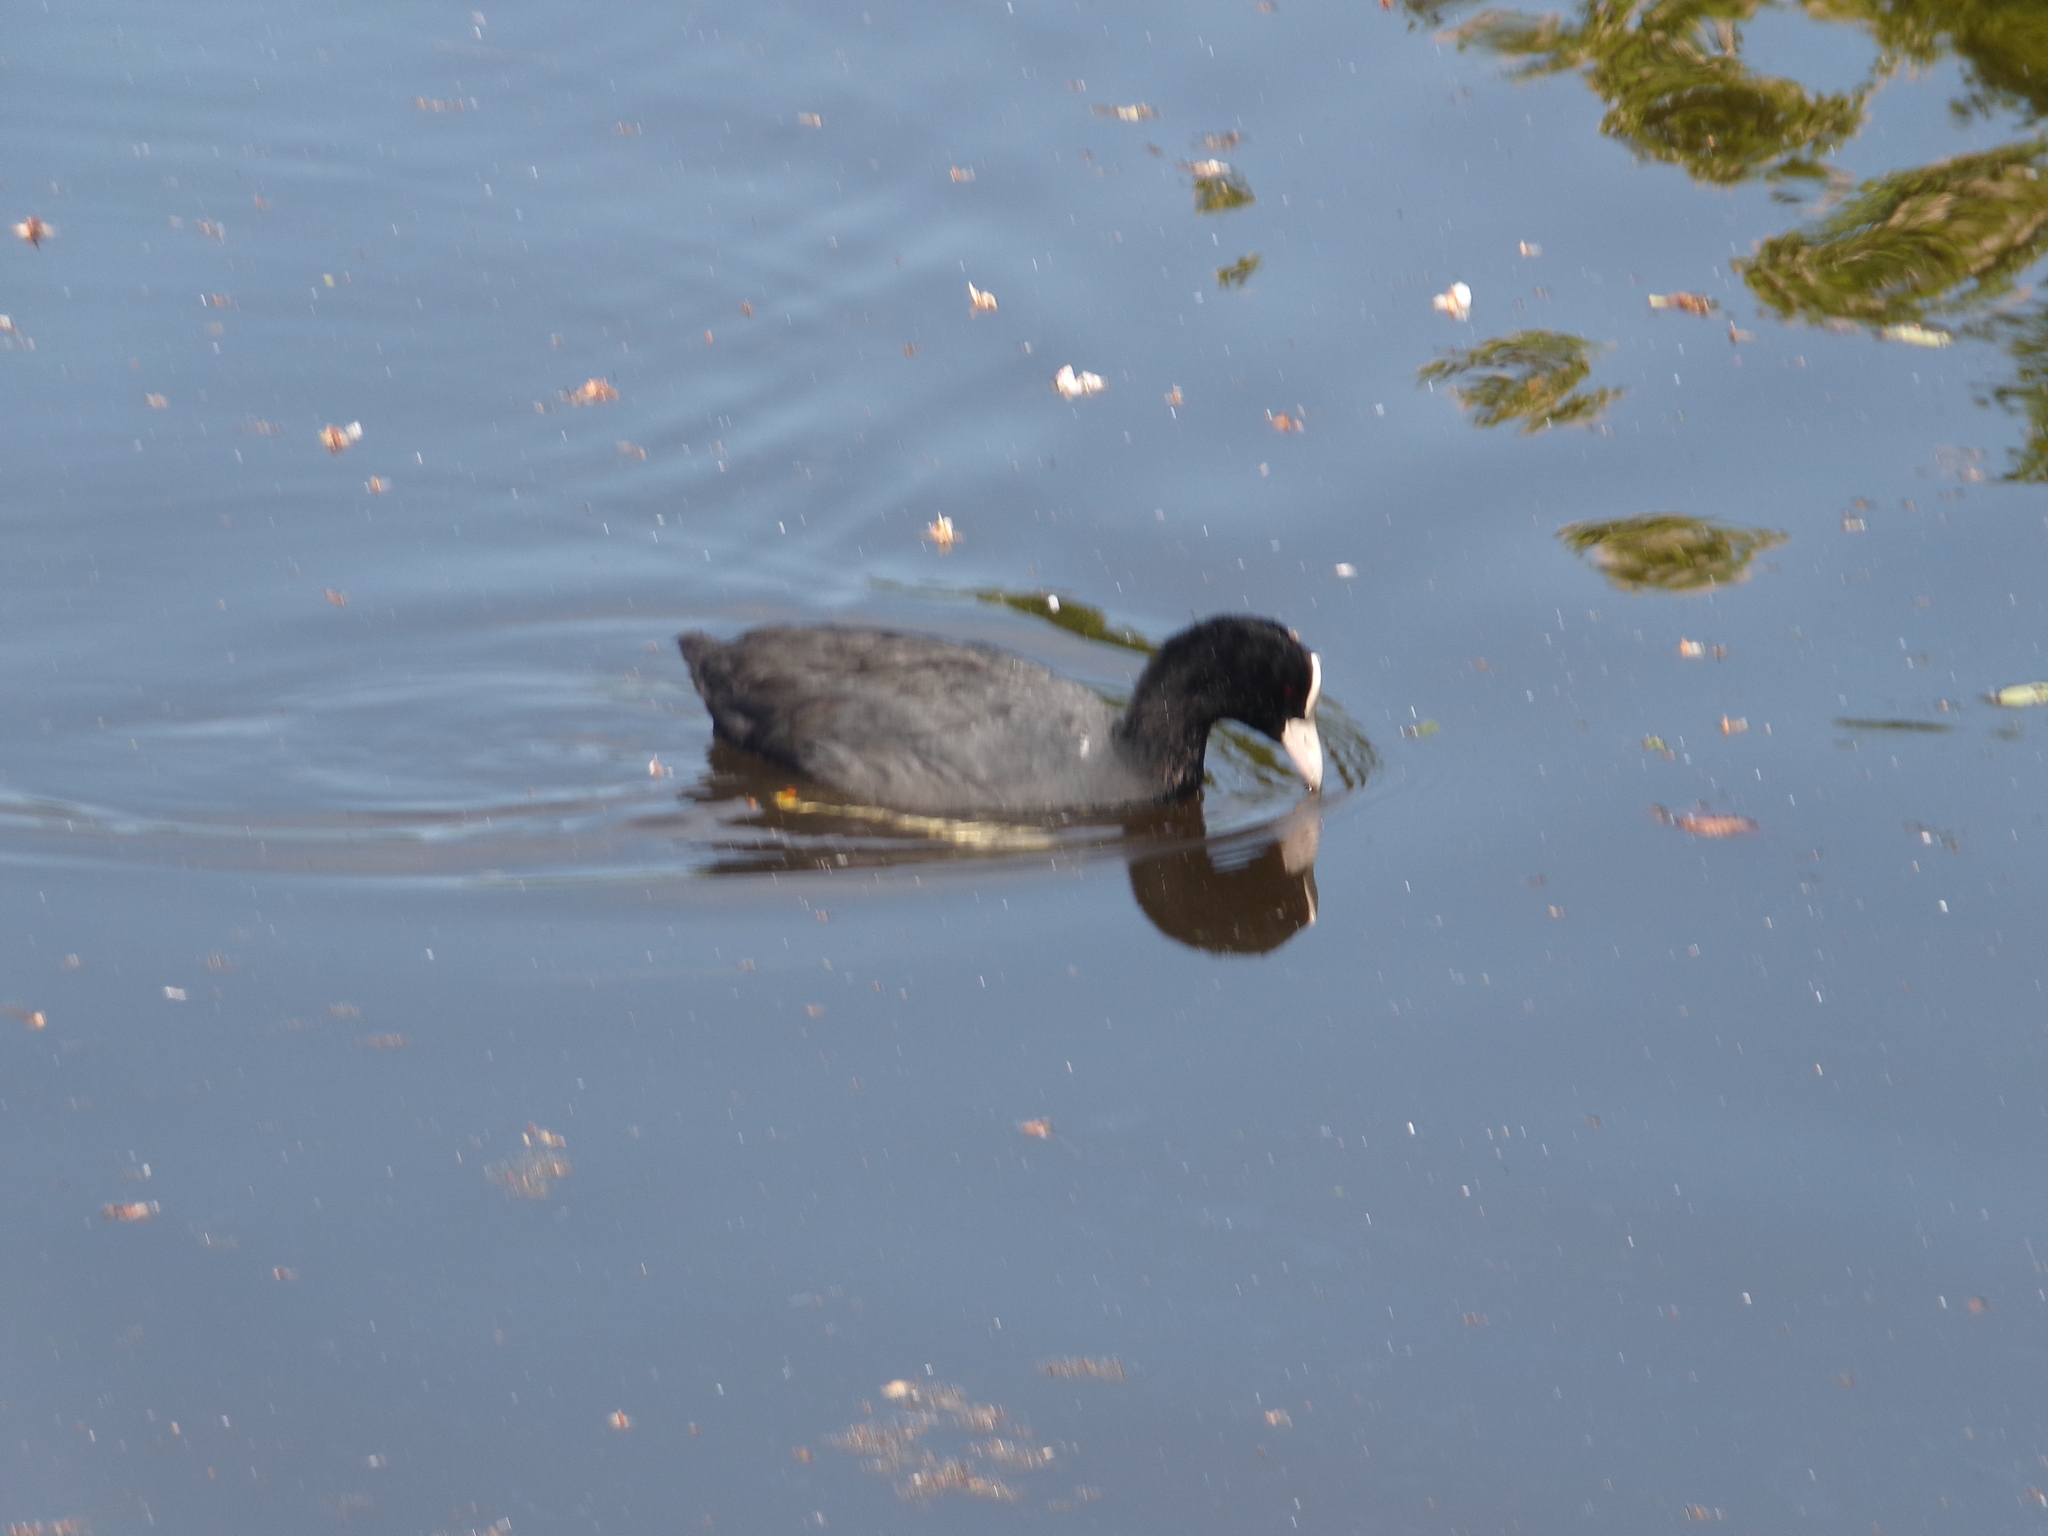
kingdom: Animalia
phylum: Chordata
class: Aves
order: Gruiformes
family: Rallidae
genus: Fulica
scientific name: Fulica atra
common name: Eurasian coot
